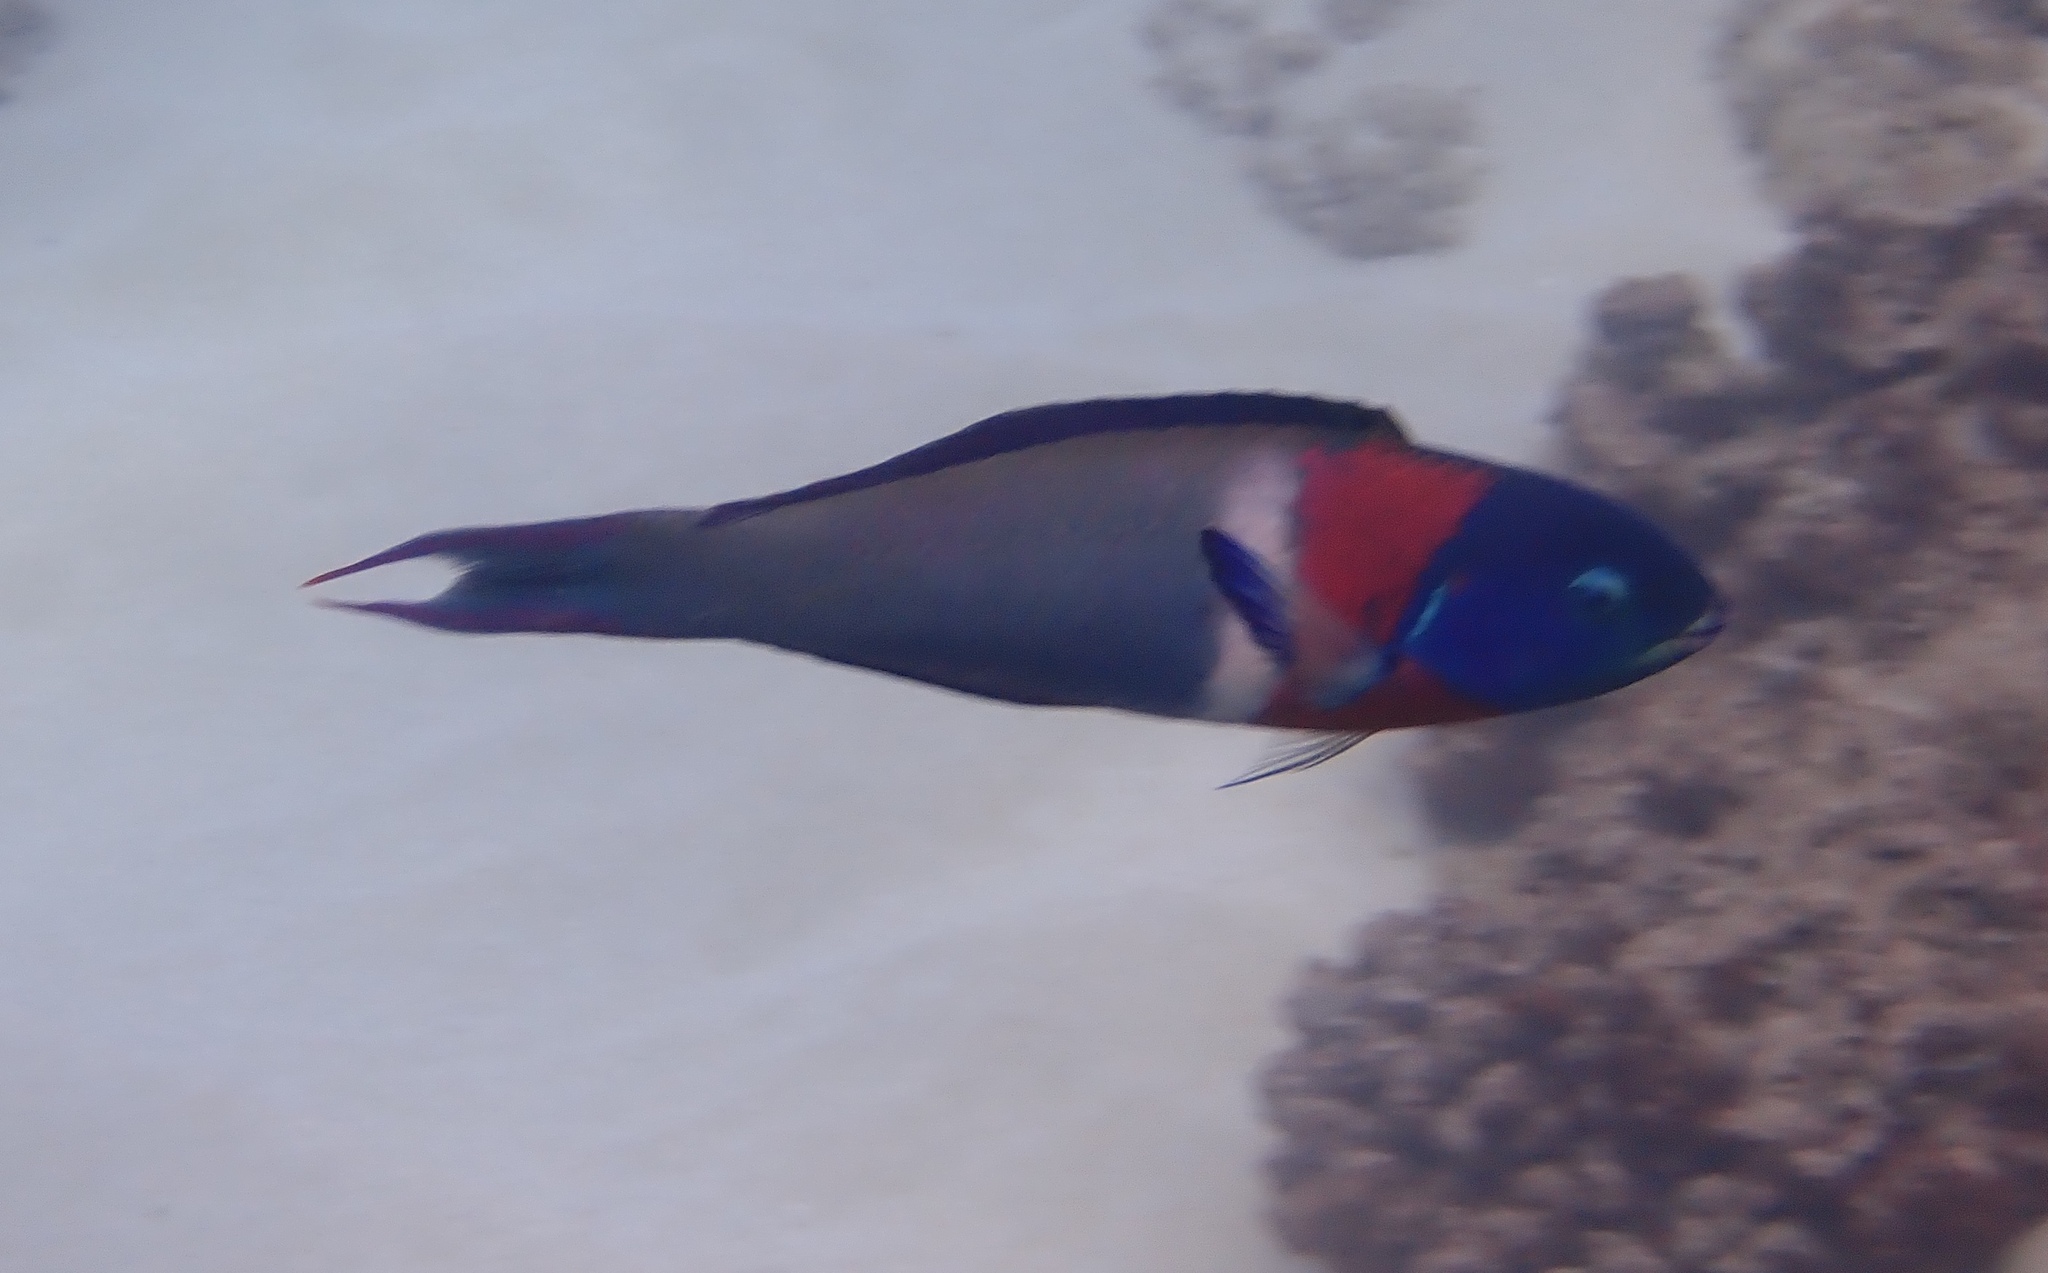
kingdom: Animalia
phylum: Chordata
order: Perciformes
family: Labridae
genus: Thalassoma
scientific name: Thalassoma duperrey
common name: Saddle wrasse
